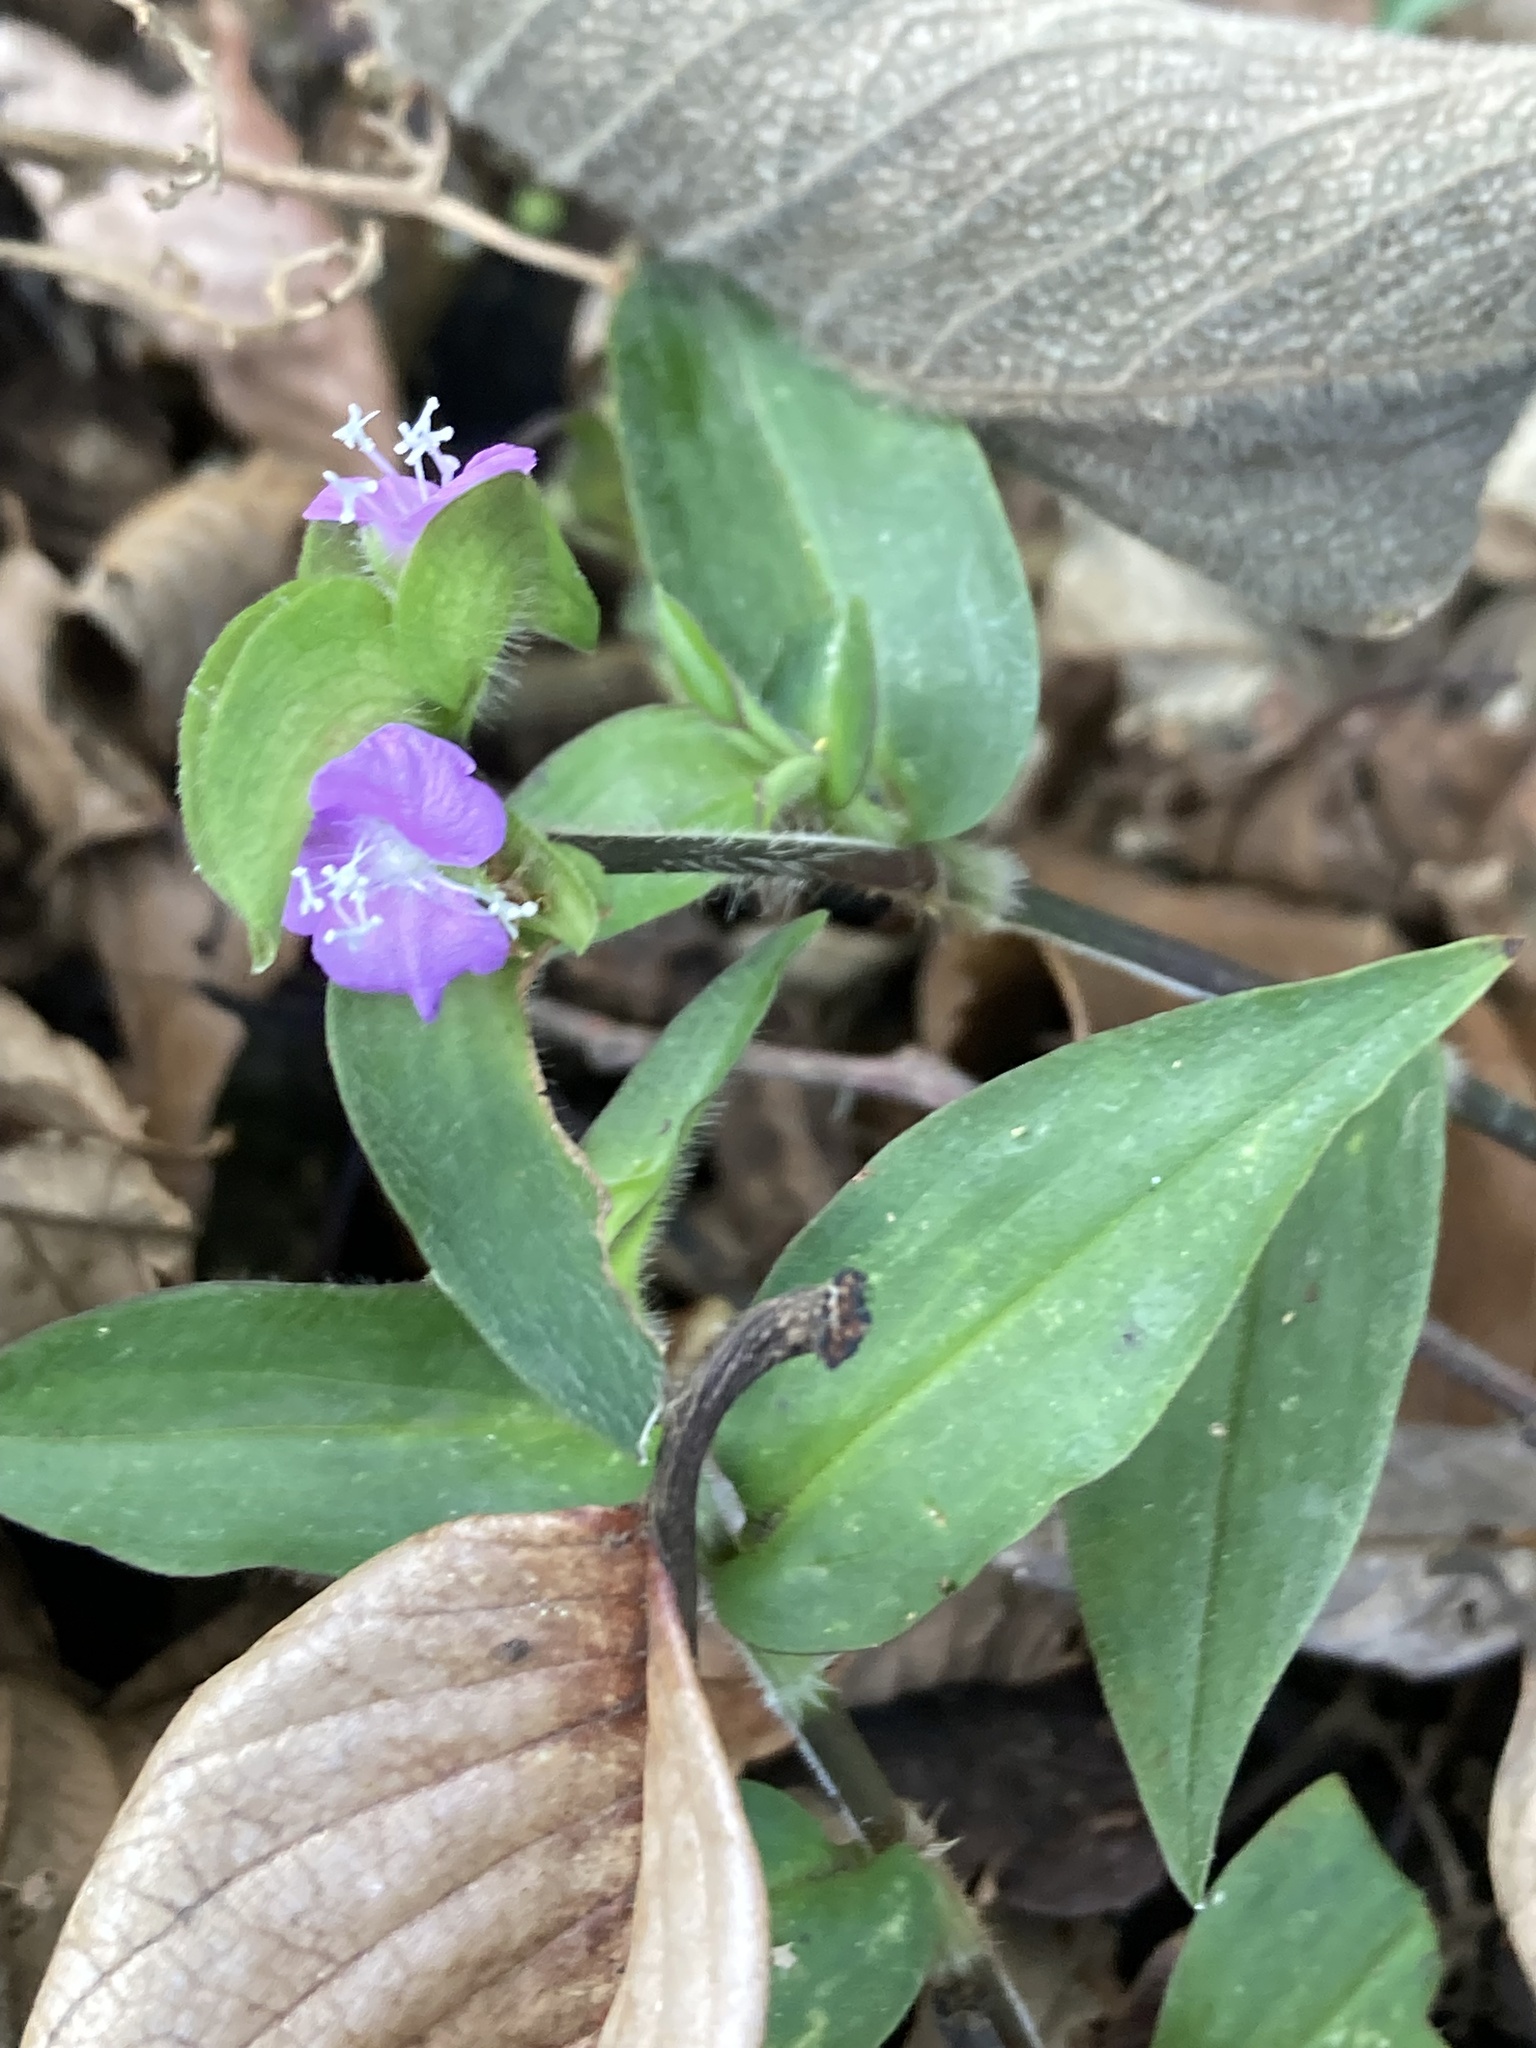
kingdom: Plantae
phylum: Tracheophyta
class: Liliopsida
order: Commelinales
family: Commelinaceae
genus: Tradescantia
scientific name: Tradescantia poelliae
